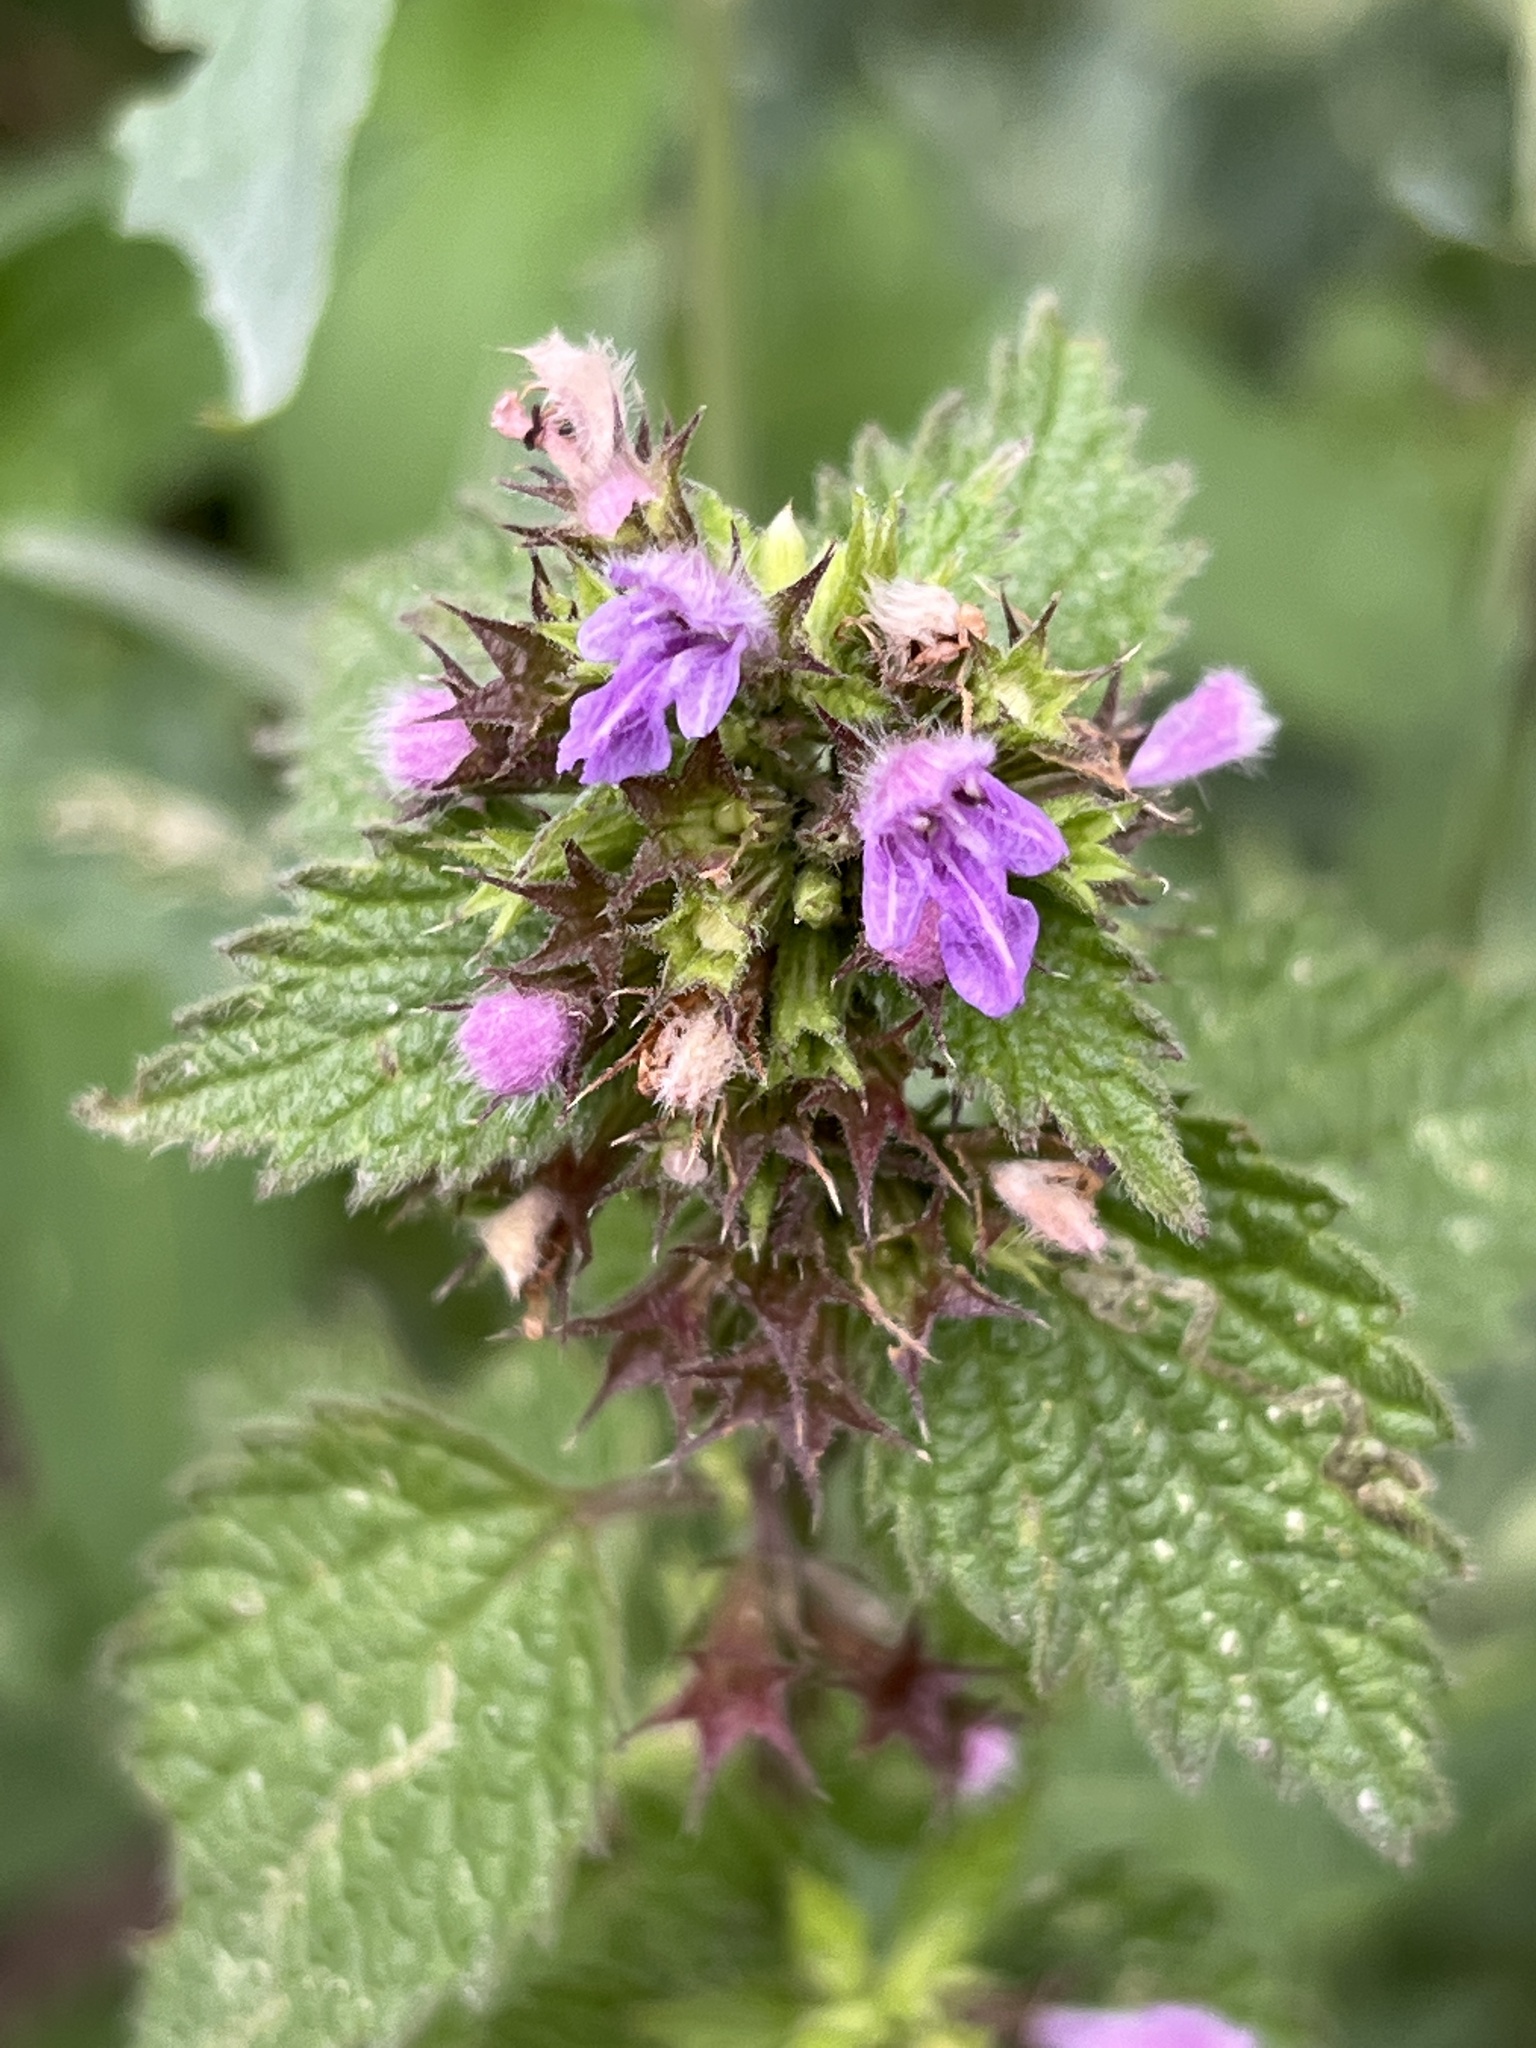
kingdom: Plantae
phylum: Tracheophyta
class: Magnoliopsida
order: Lamiales
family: Lamiaceae
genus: Ballota
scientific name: Ballota nigra
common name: Black horehound
